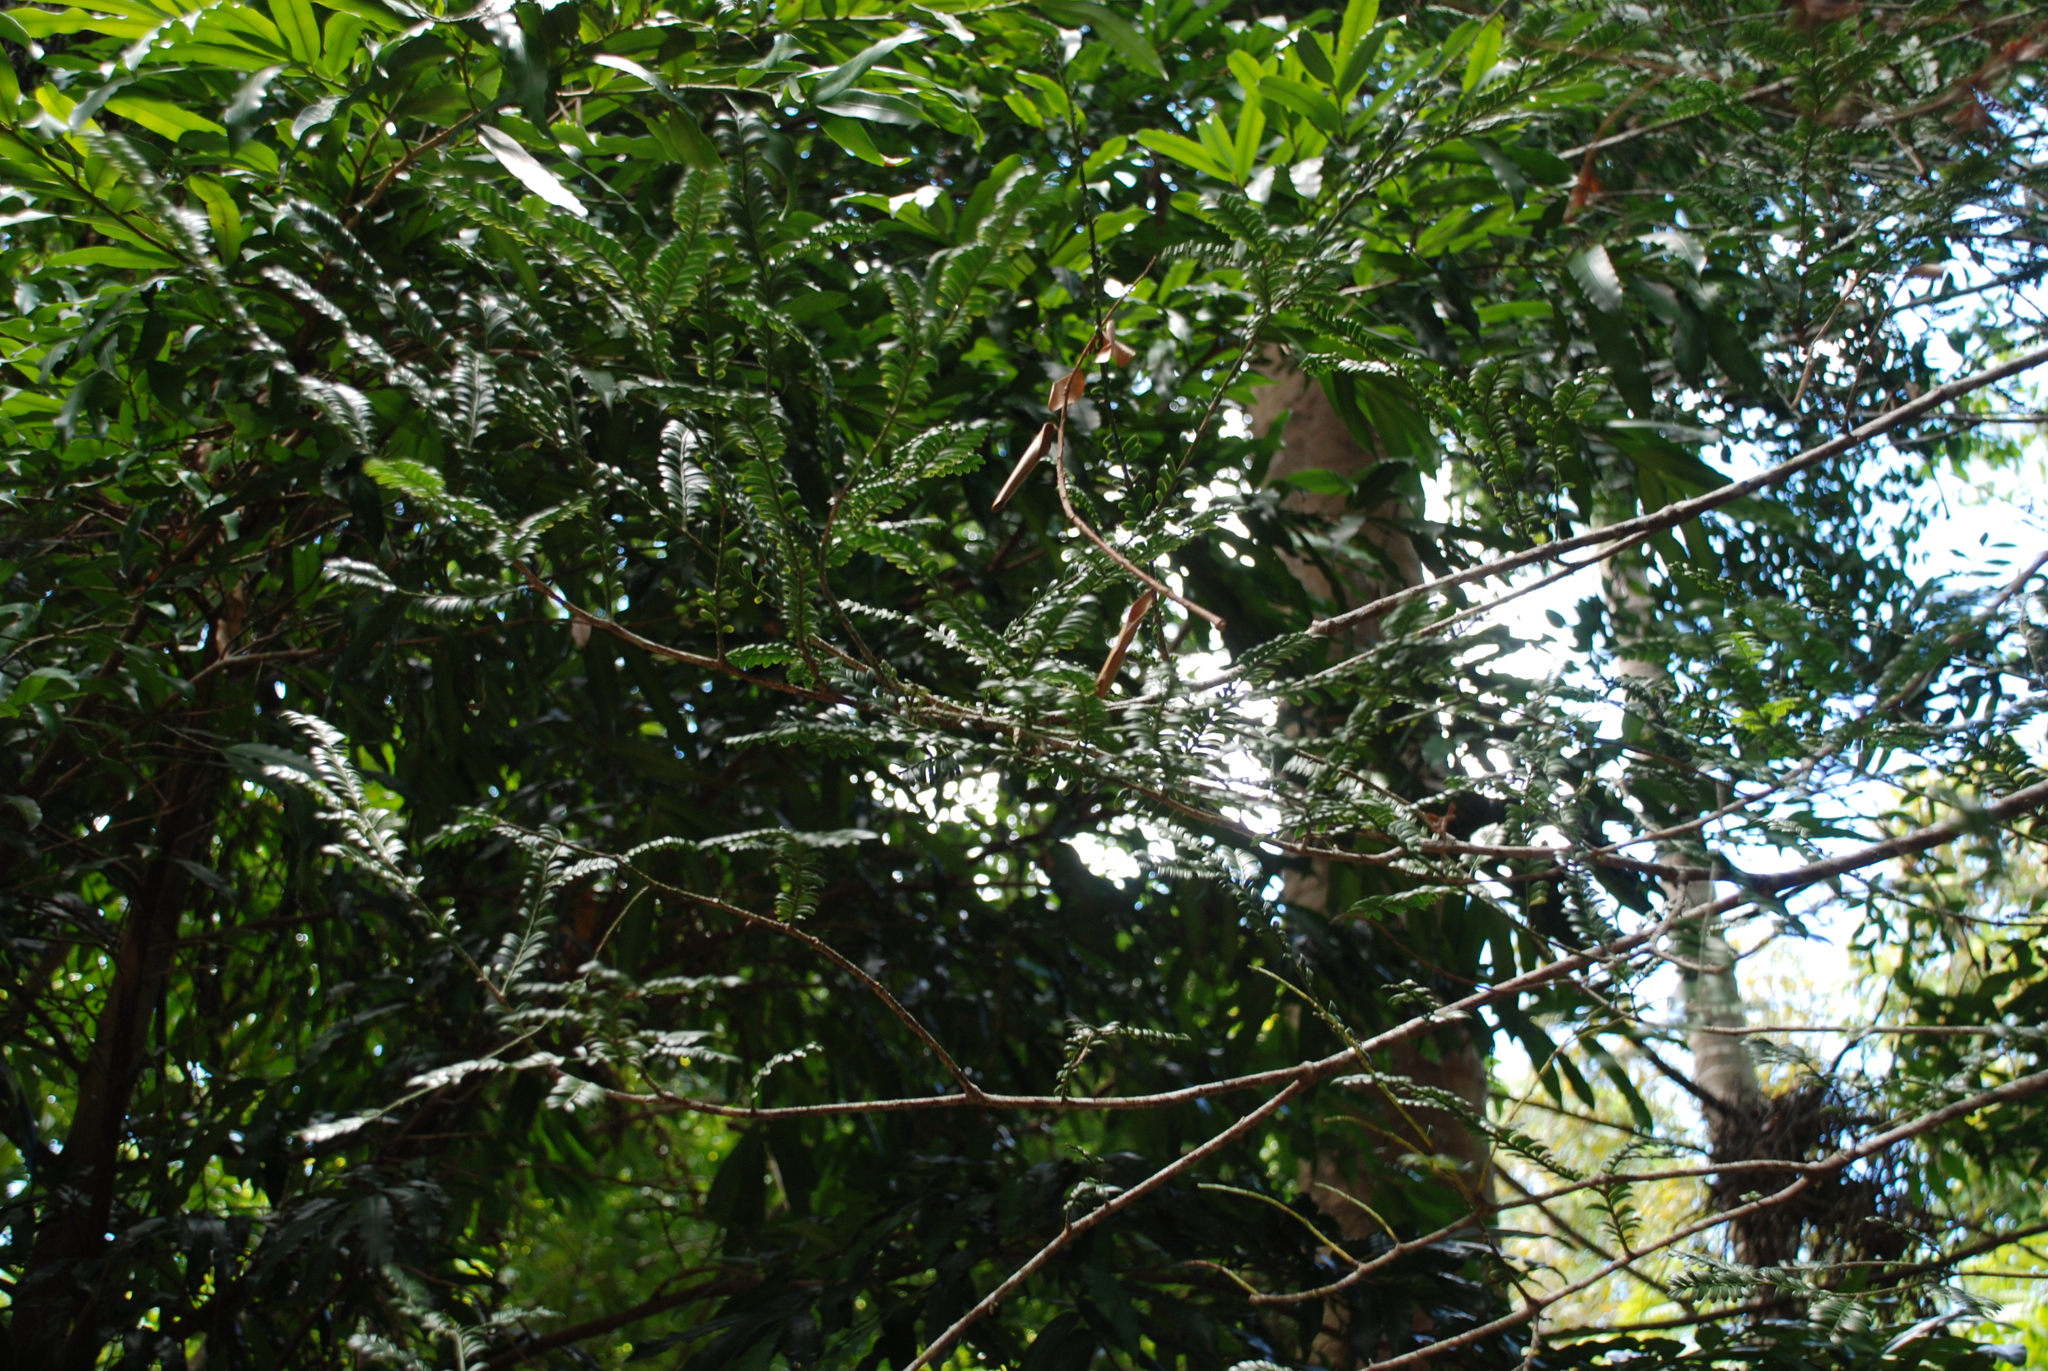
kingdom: Plantae
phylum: Tracheophyta
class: Pinopsida
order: Pinales
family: Podocarpaceae
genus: Prumnopitys
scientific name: Prumnopitys ladei
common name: Mt spurgeon black pine
